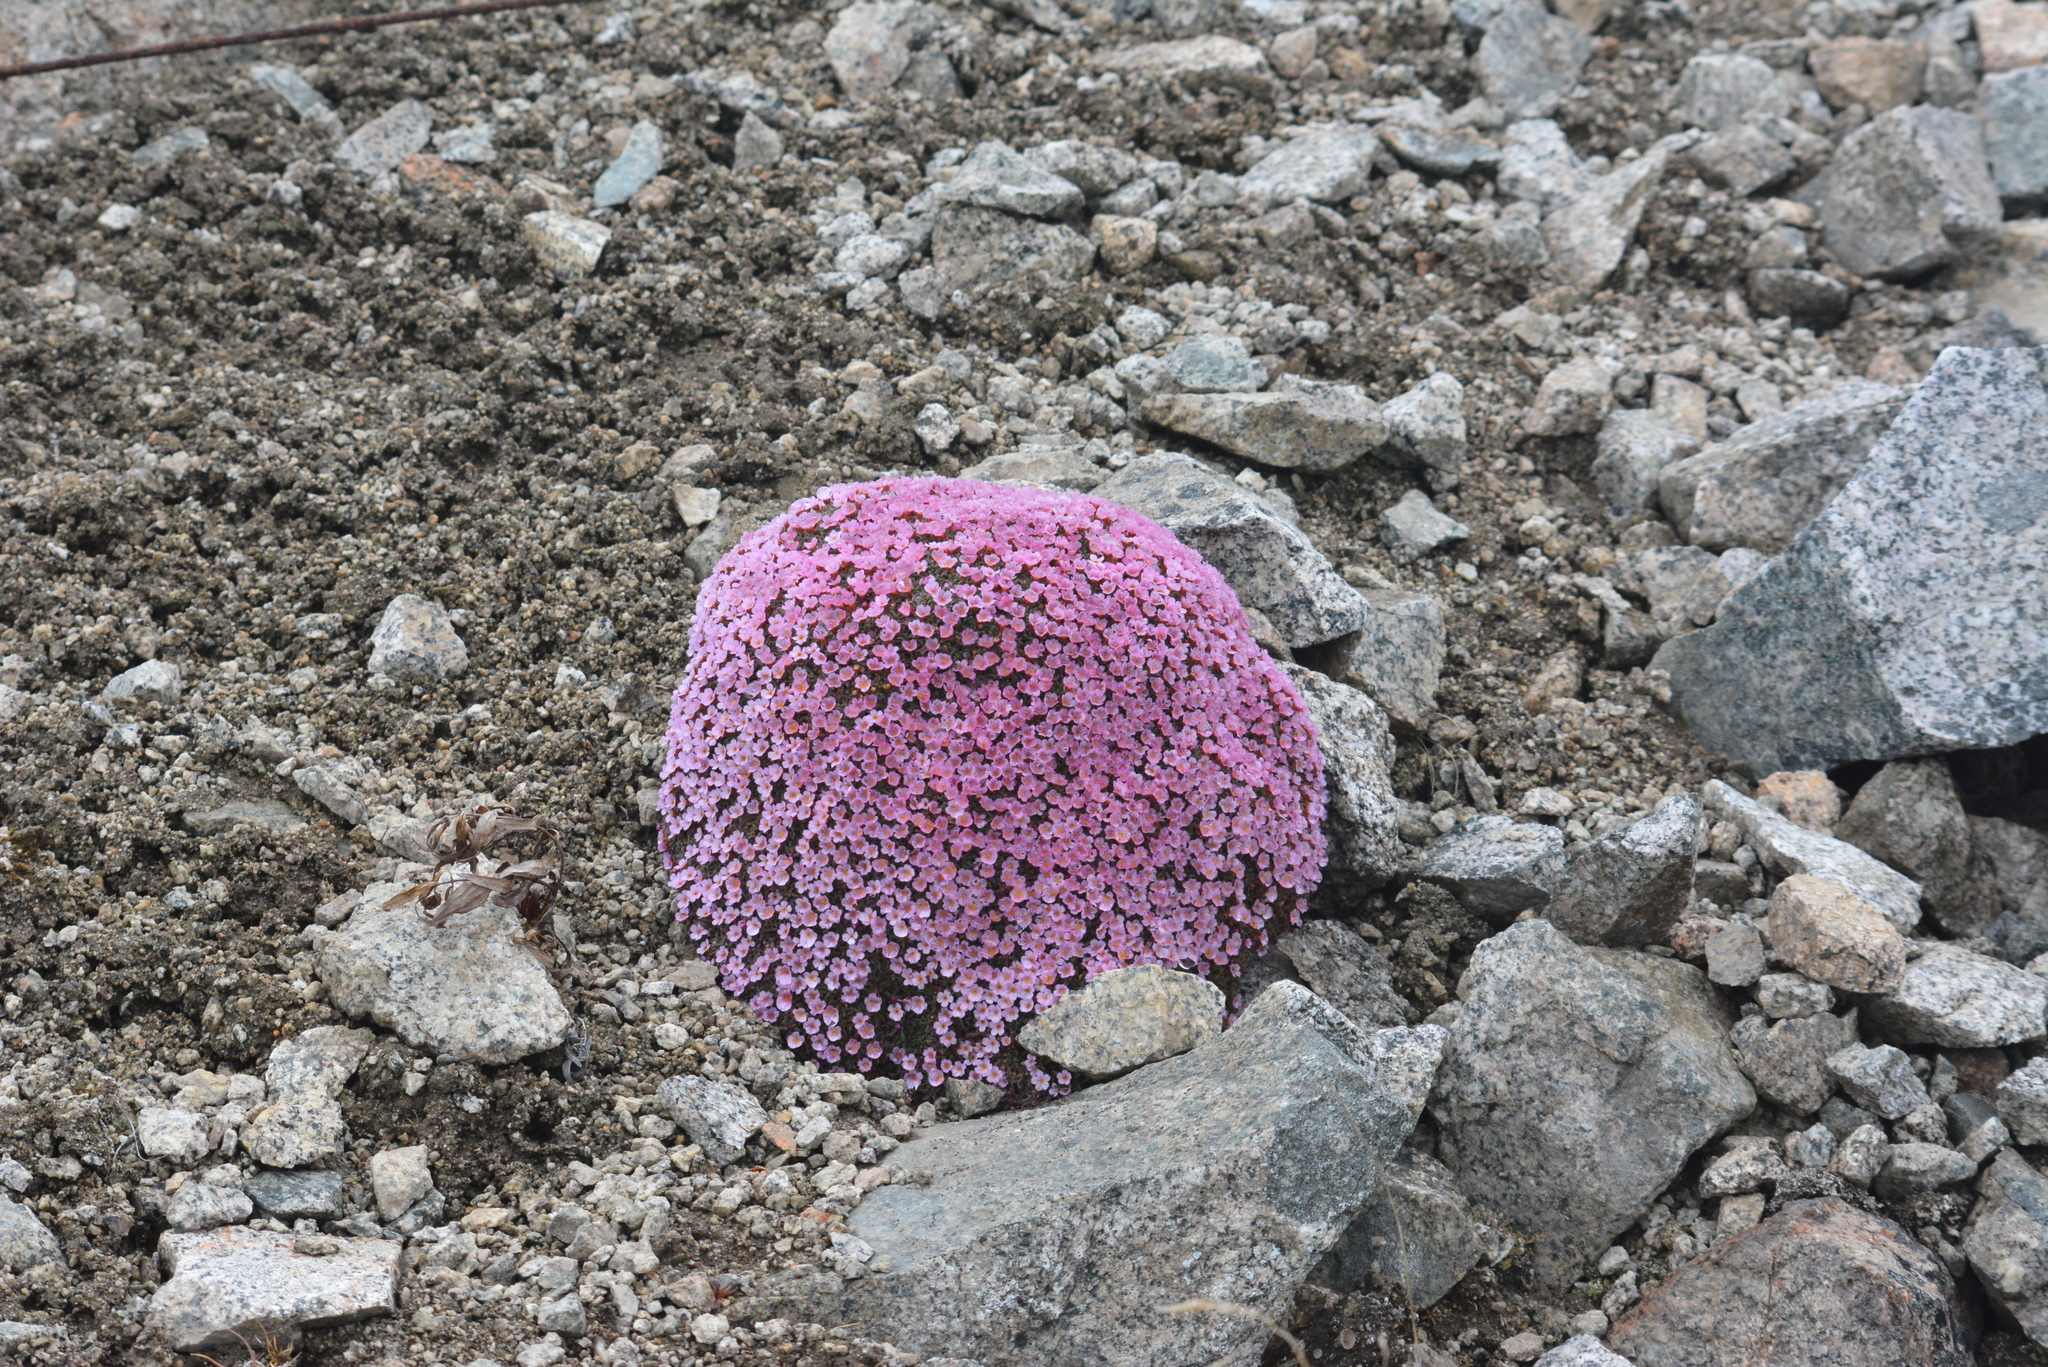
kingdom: Plantae
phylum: Tracheophyta
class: Magnoliopsida
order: Ericales
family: Primulaceae
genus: Androsace
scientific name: Androsace ochotensis
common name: Alaska dwarf-primrose
